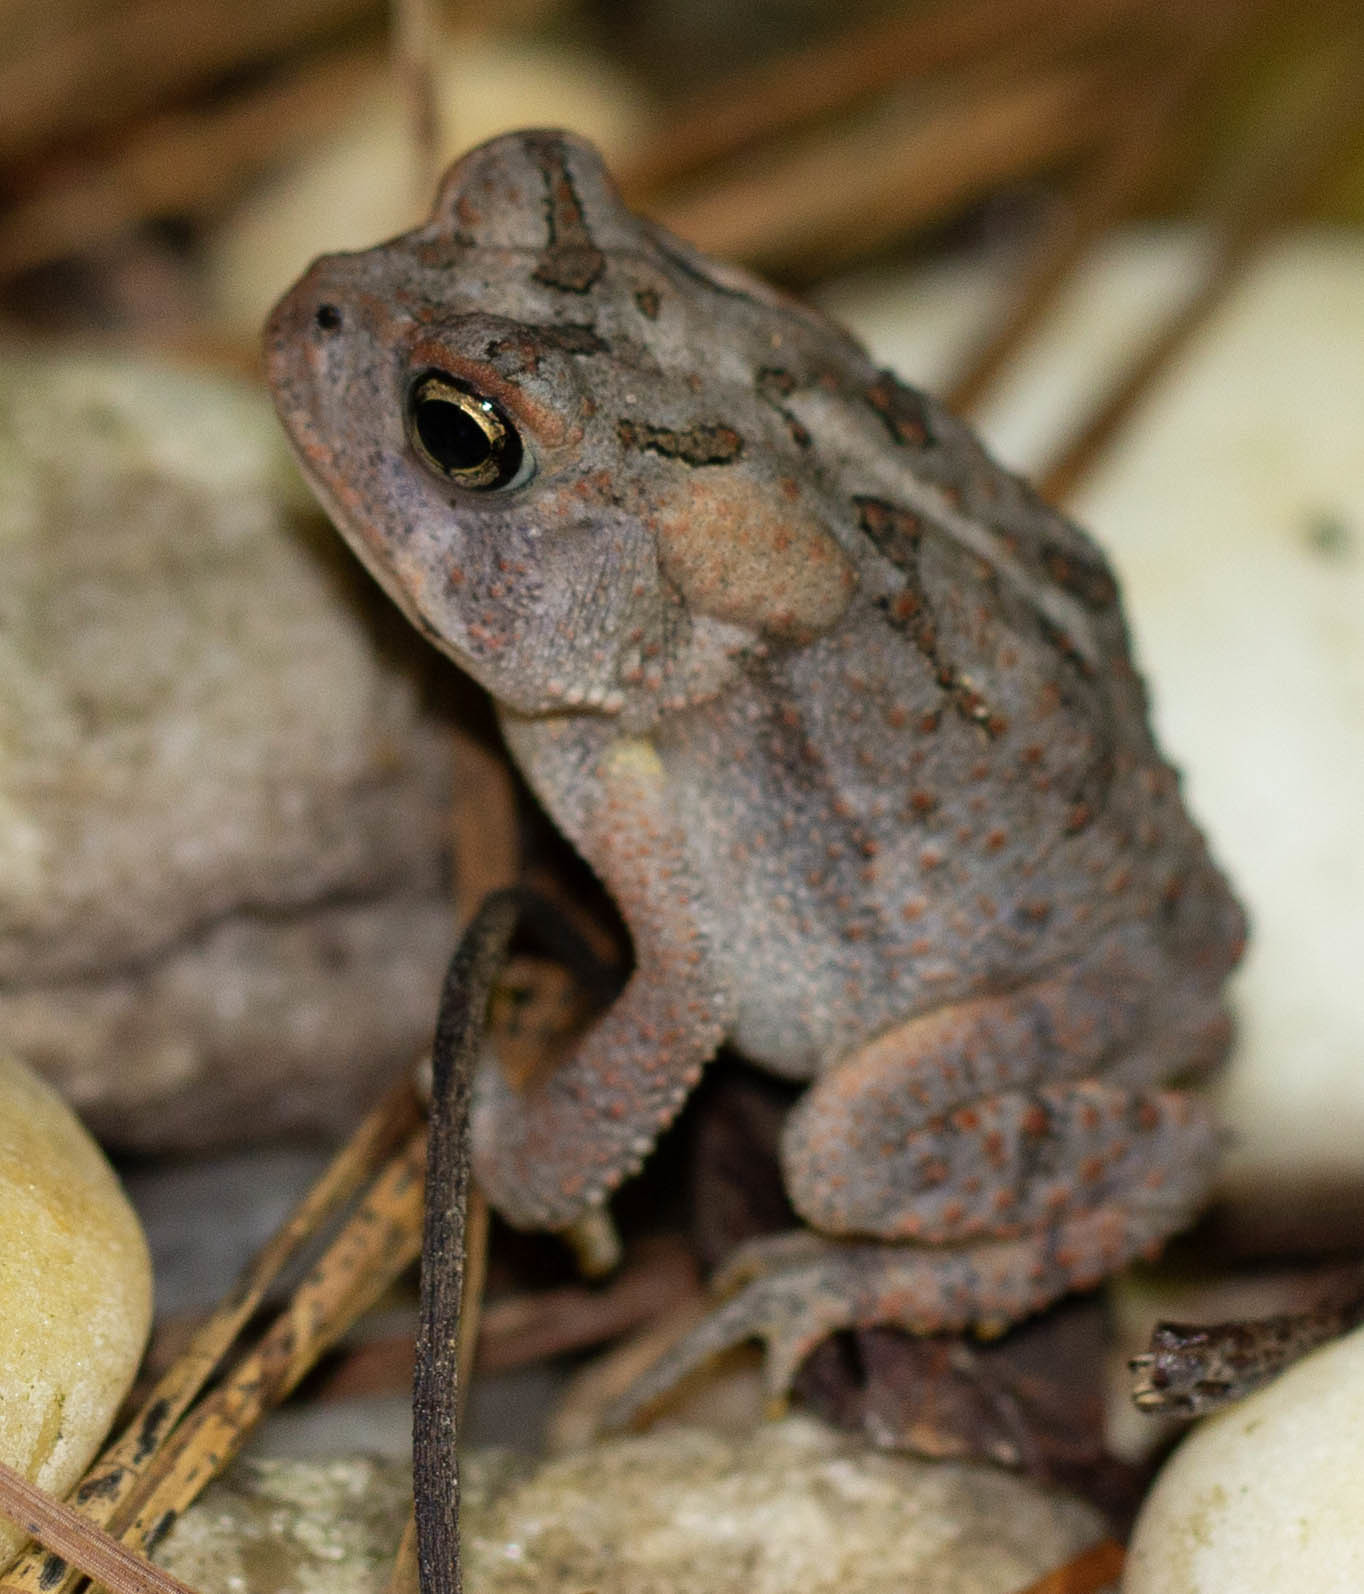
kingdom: Animalia
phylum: Chordata
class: Amphibia
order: Anura
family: Bufonidae
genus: Anaxyrus
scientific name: Anaxyrus terrestris
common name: Southern toad
